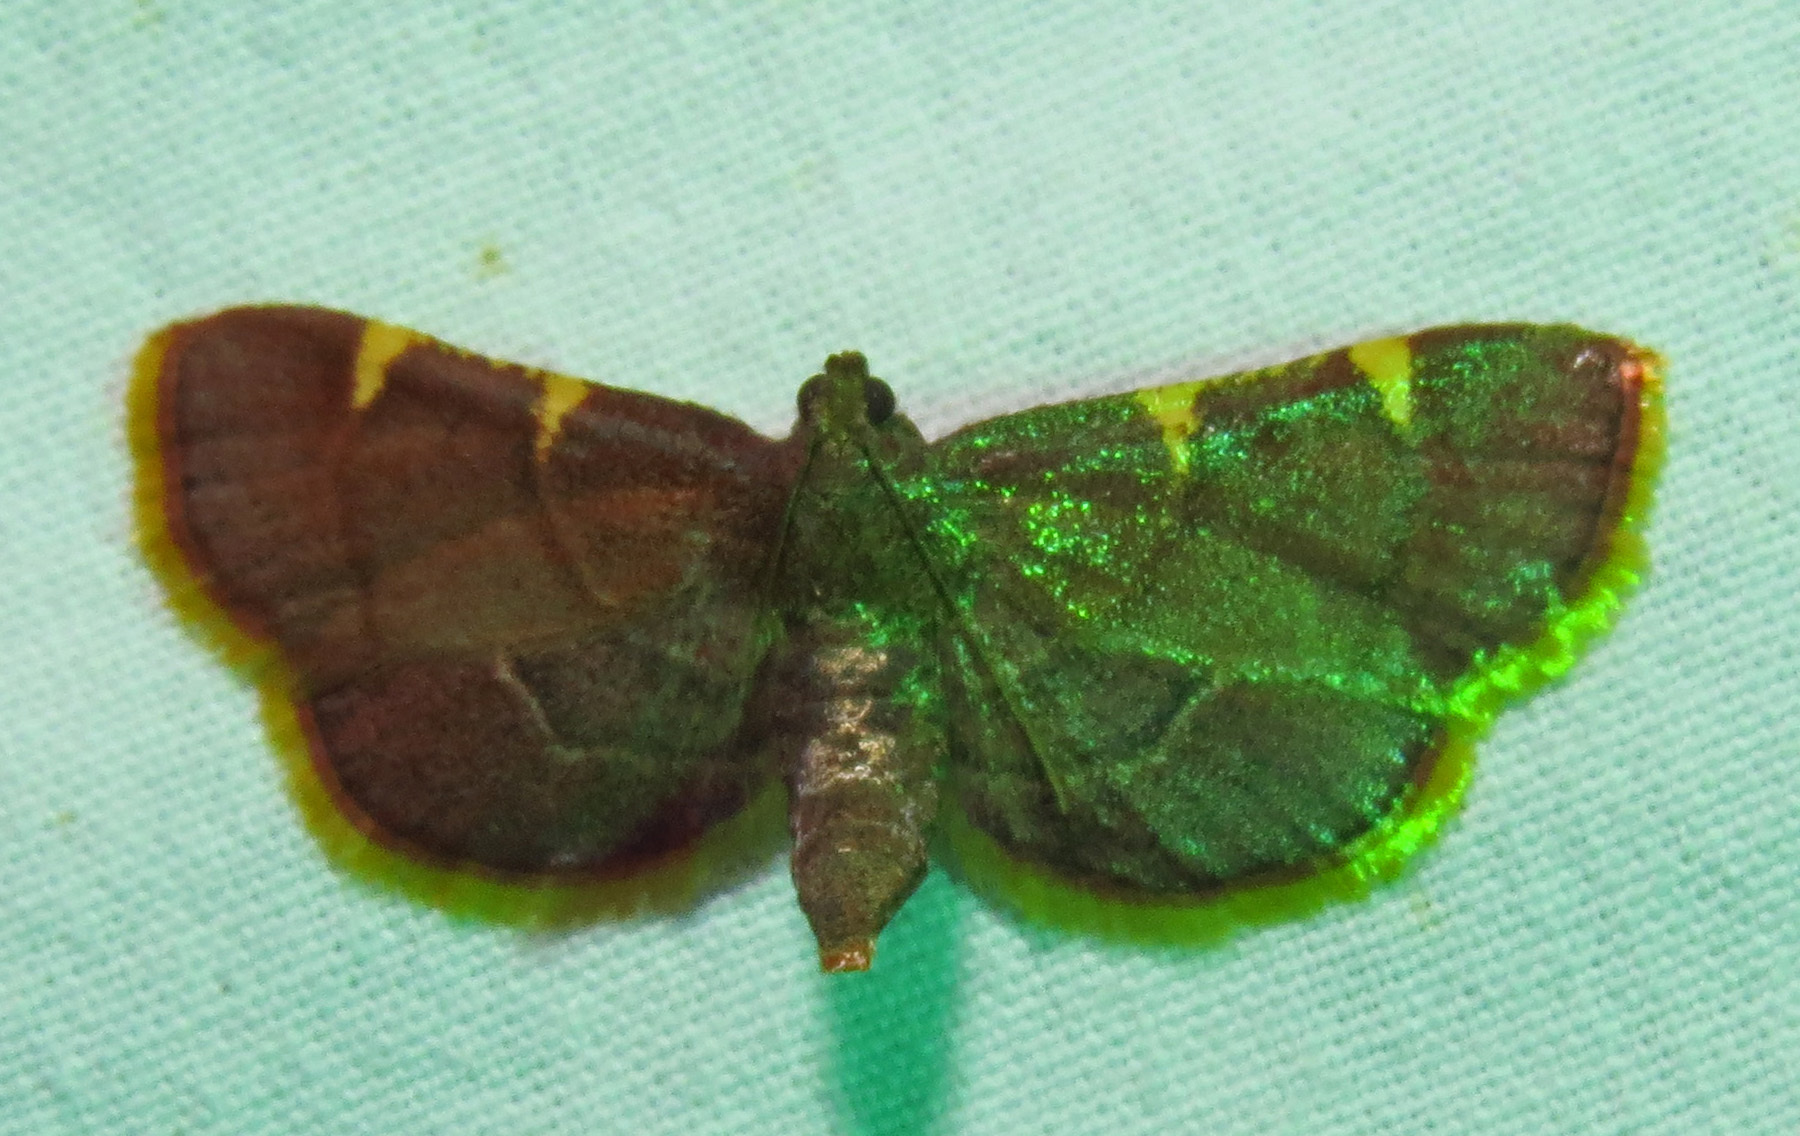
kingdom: Animalia
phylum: Arthropoda
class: Insecta
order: Lepidoptera
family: Pyralidae
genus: Hypsopygia
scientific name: Hypsopygia olinalis
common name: Yellow-fringed dolichomia moth
